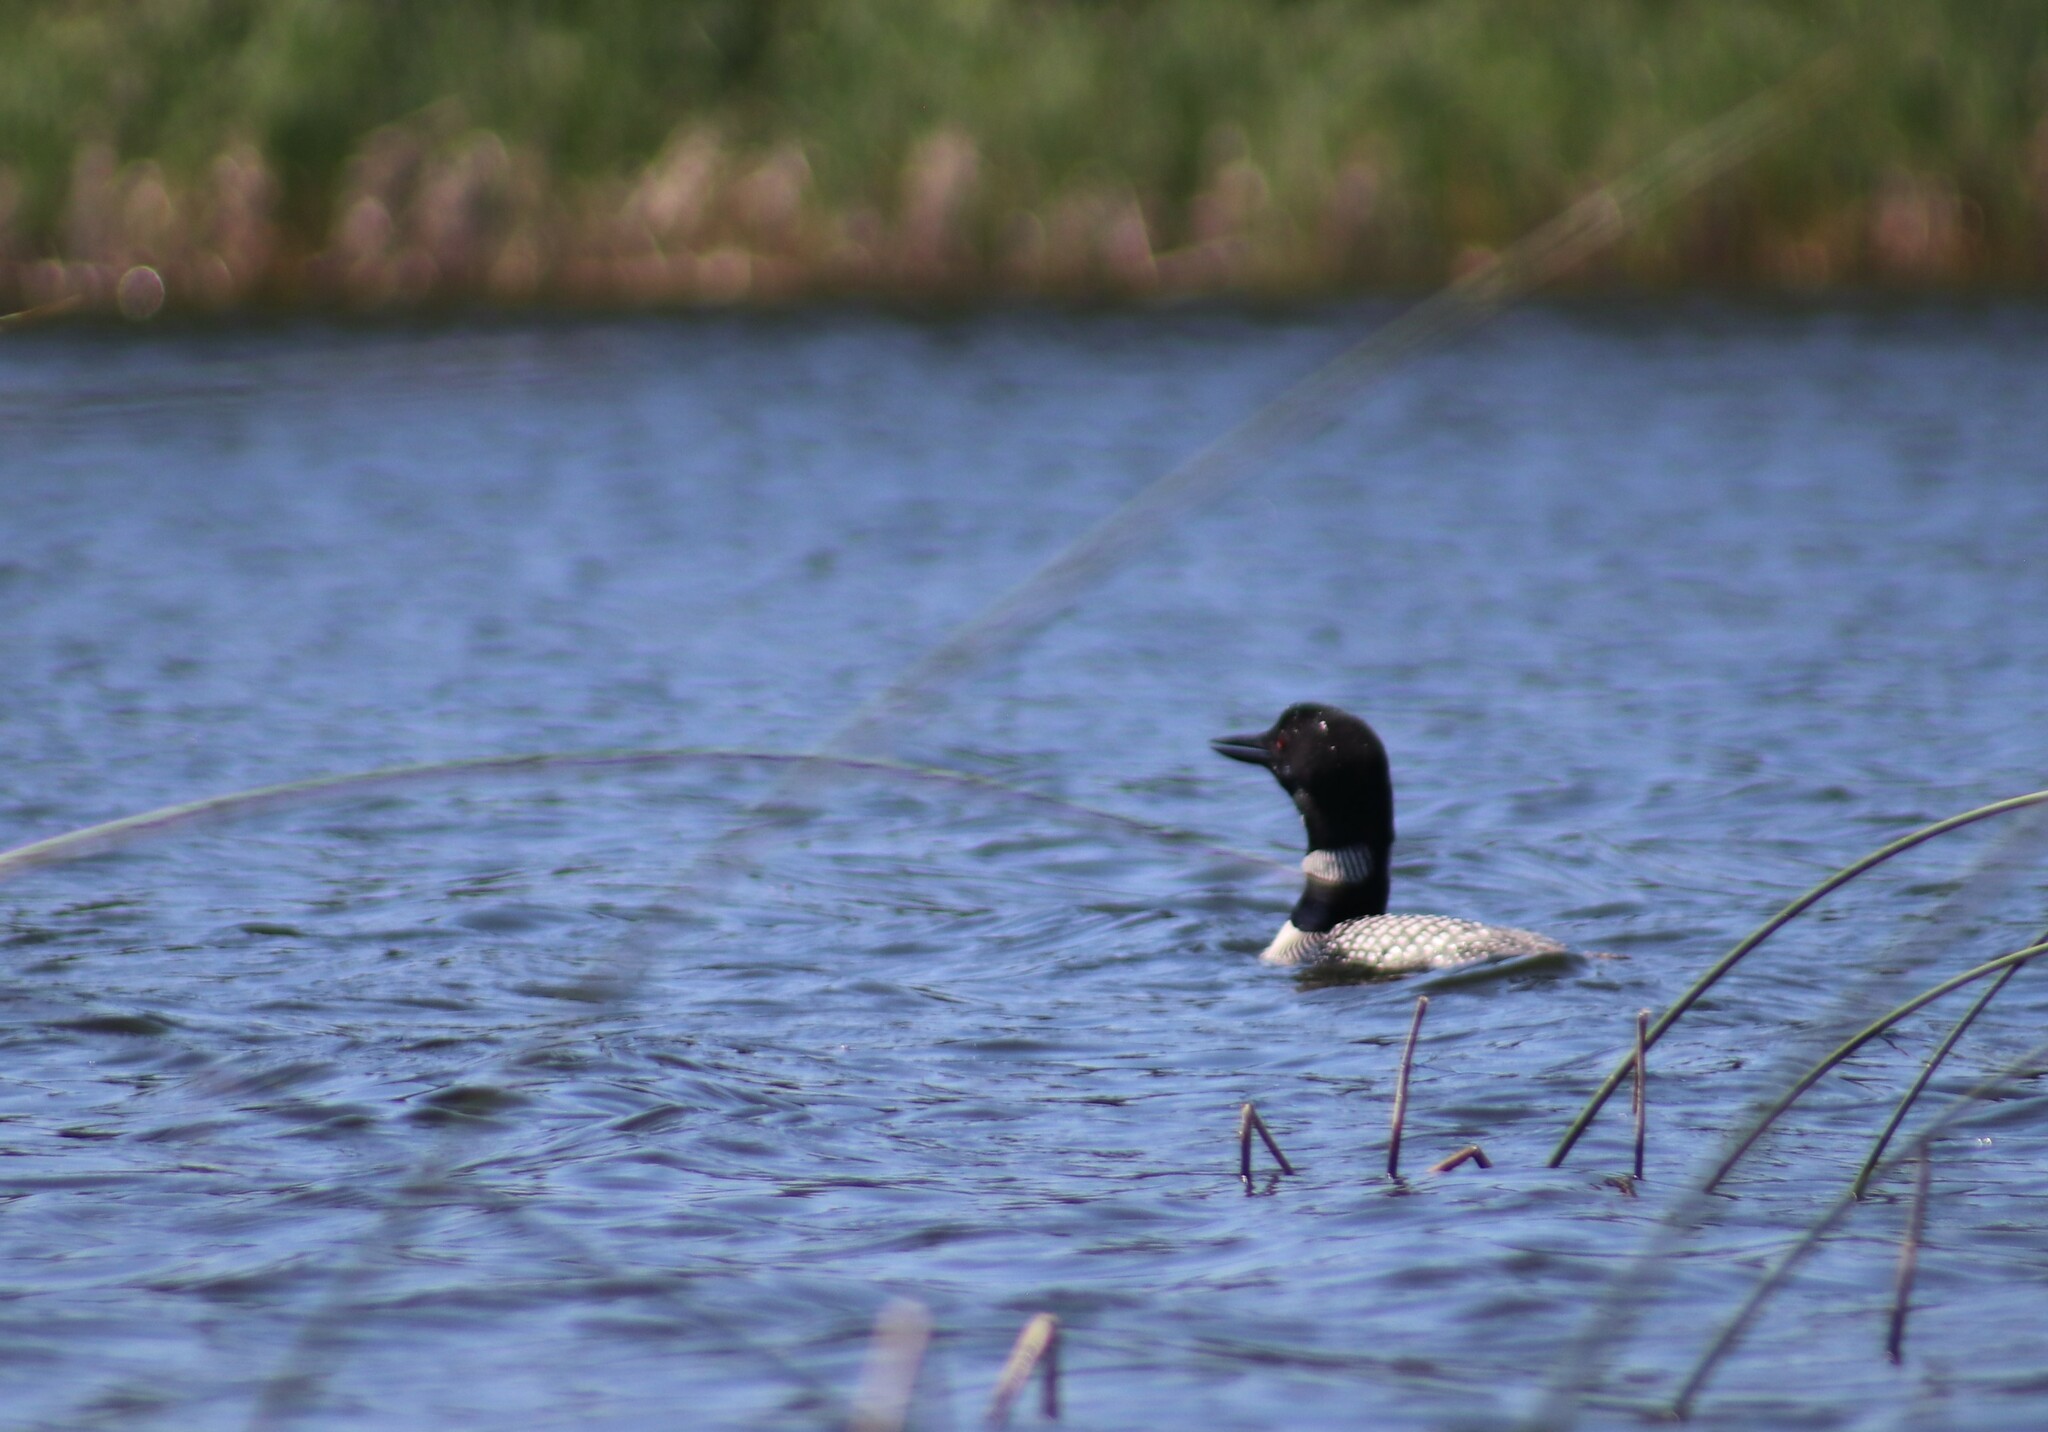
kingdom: Animalia
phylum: Chordata
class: Aves
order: Gaviiformes
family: Gaviidae
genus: Gavia
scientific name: Gavia immer
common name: Common loon
